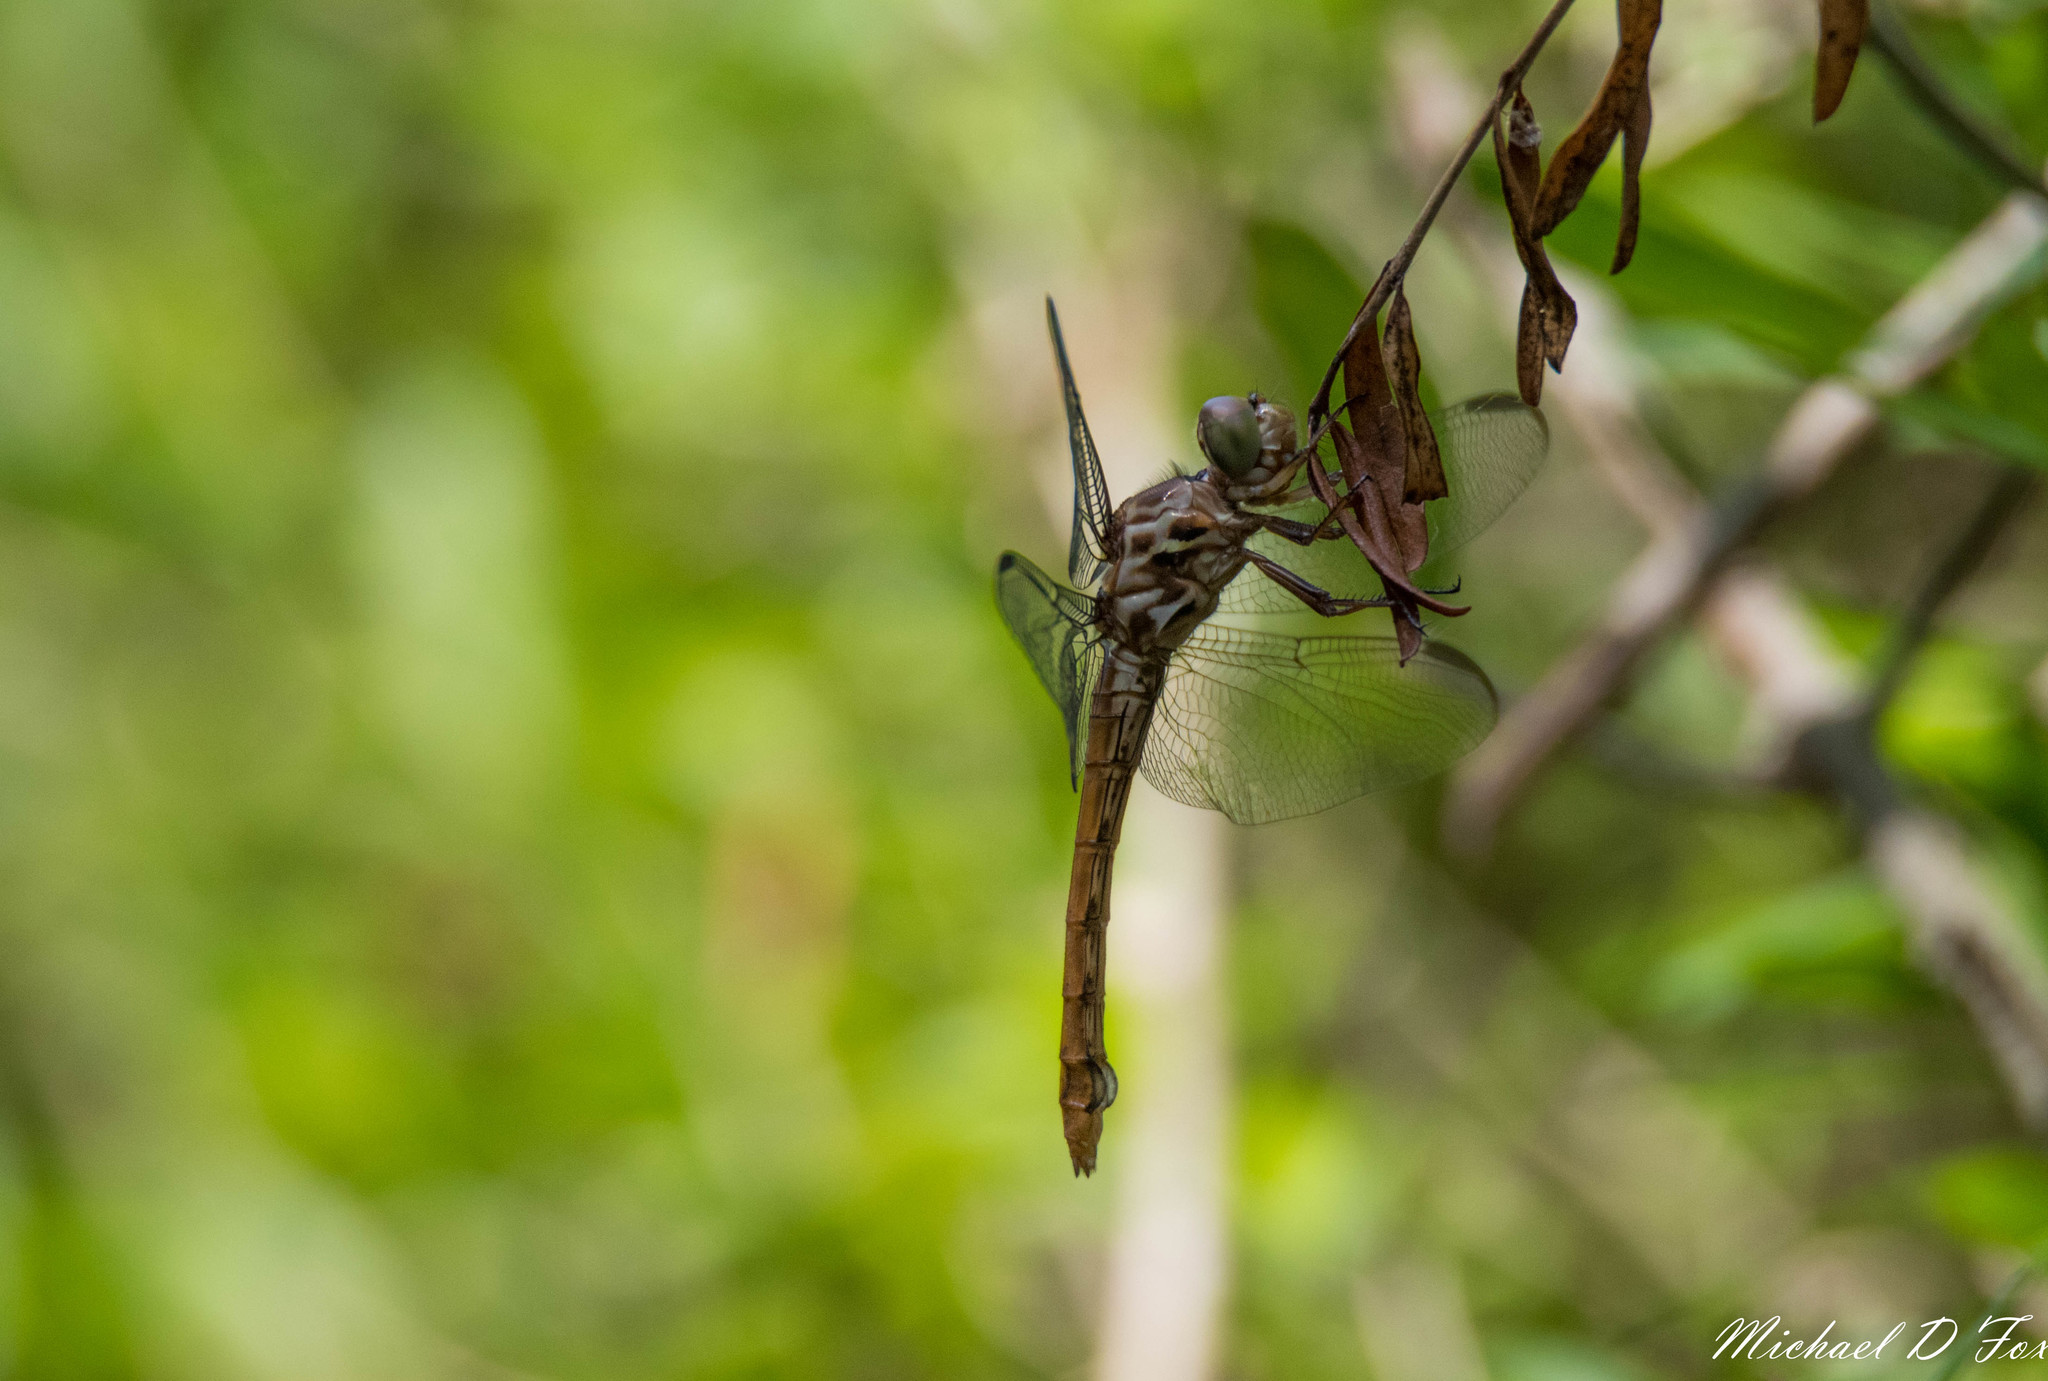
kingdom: Animalia
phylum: Arthropoda
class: Insecta
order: Odonata
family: Libellulidae
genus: Orthemis
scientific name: Orthemis ferruginea
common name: Roseate skimmer
